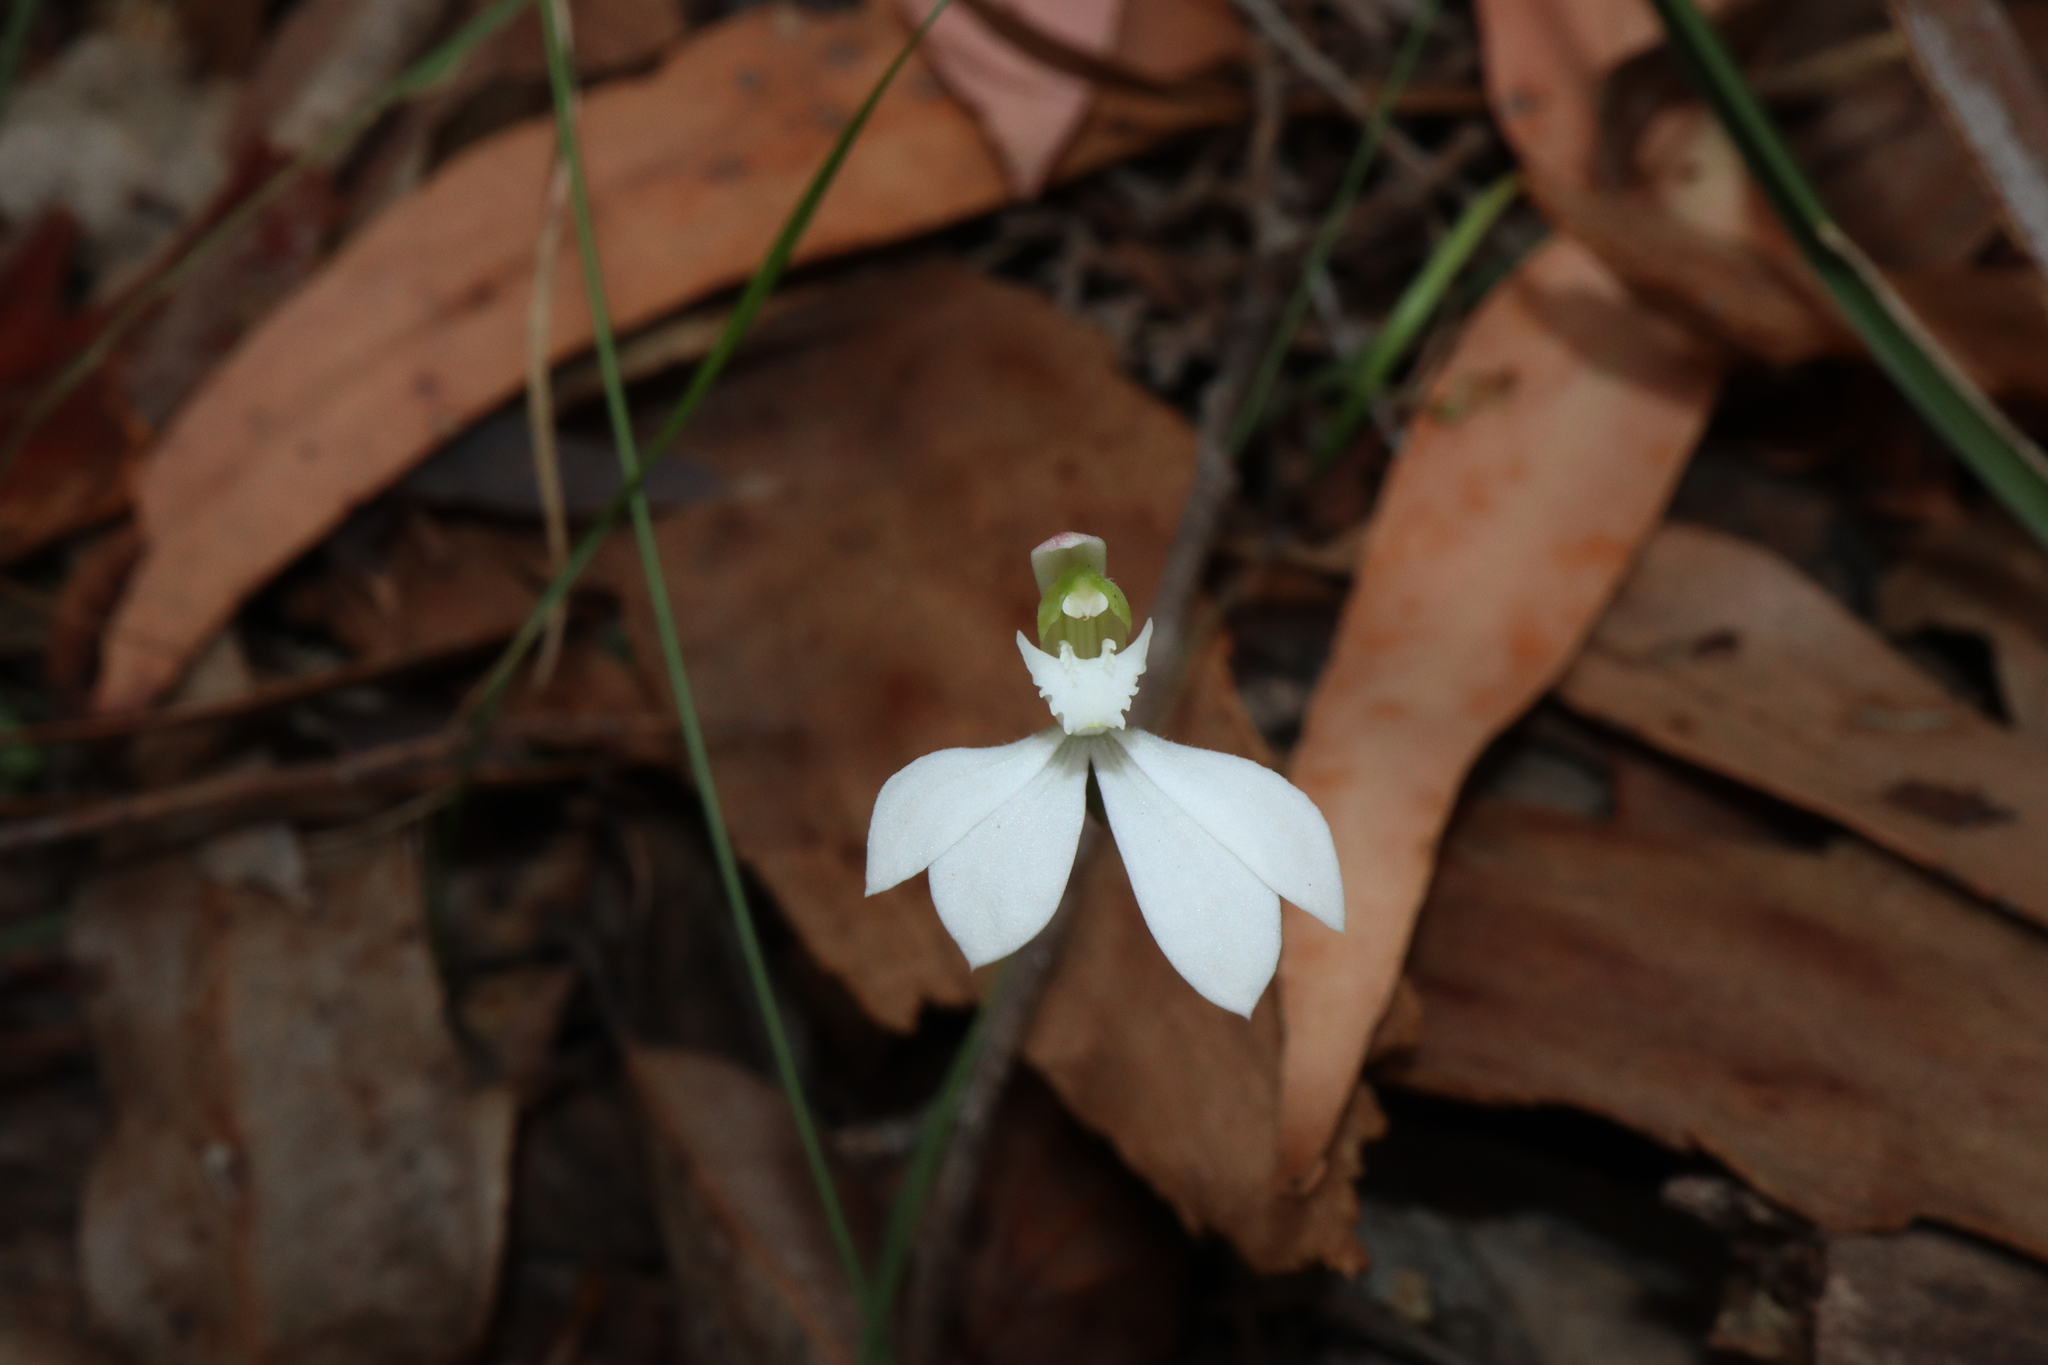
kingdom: Plantae
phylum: Tracheophyta
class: Liliopsida
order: Asparagales
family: Orchidaceae
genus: Caladenia
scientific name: Caladenia catenata
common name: White caladenia
